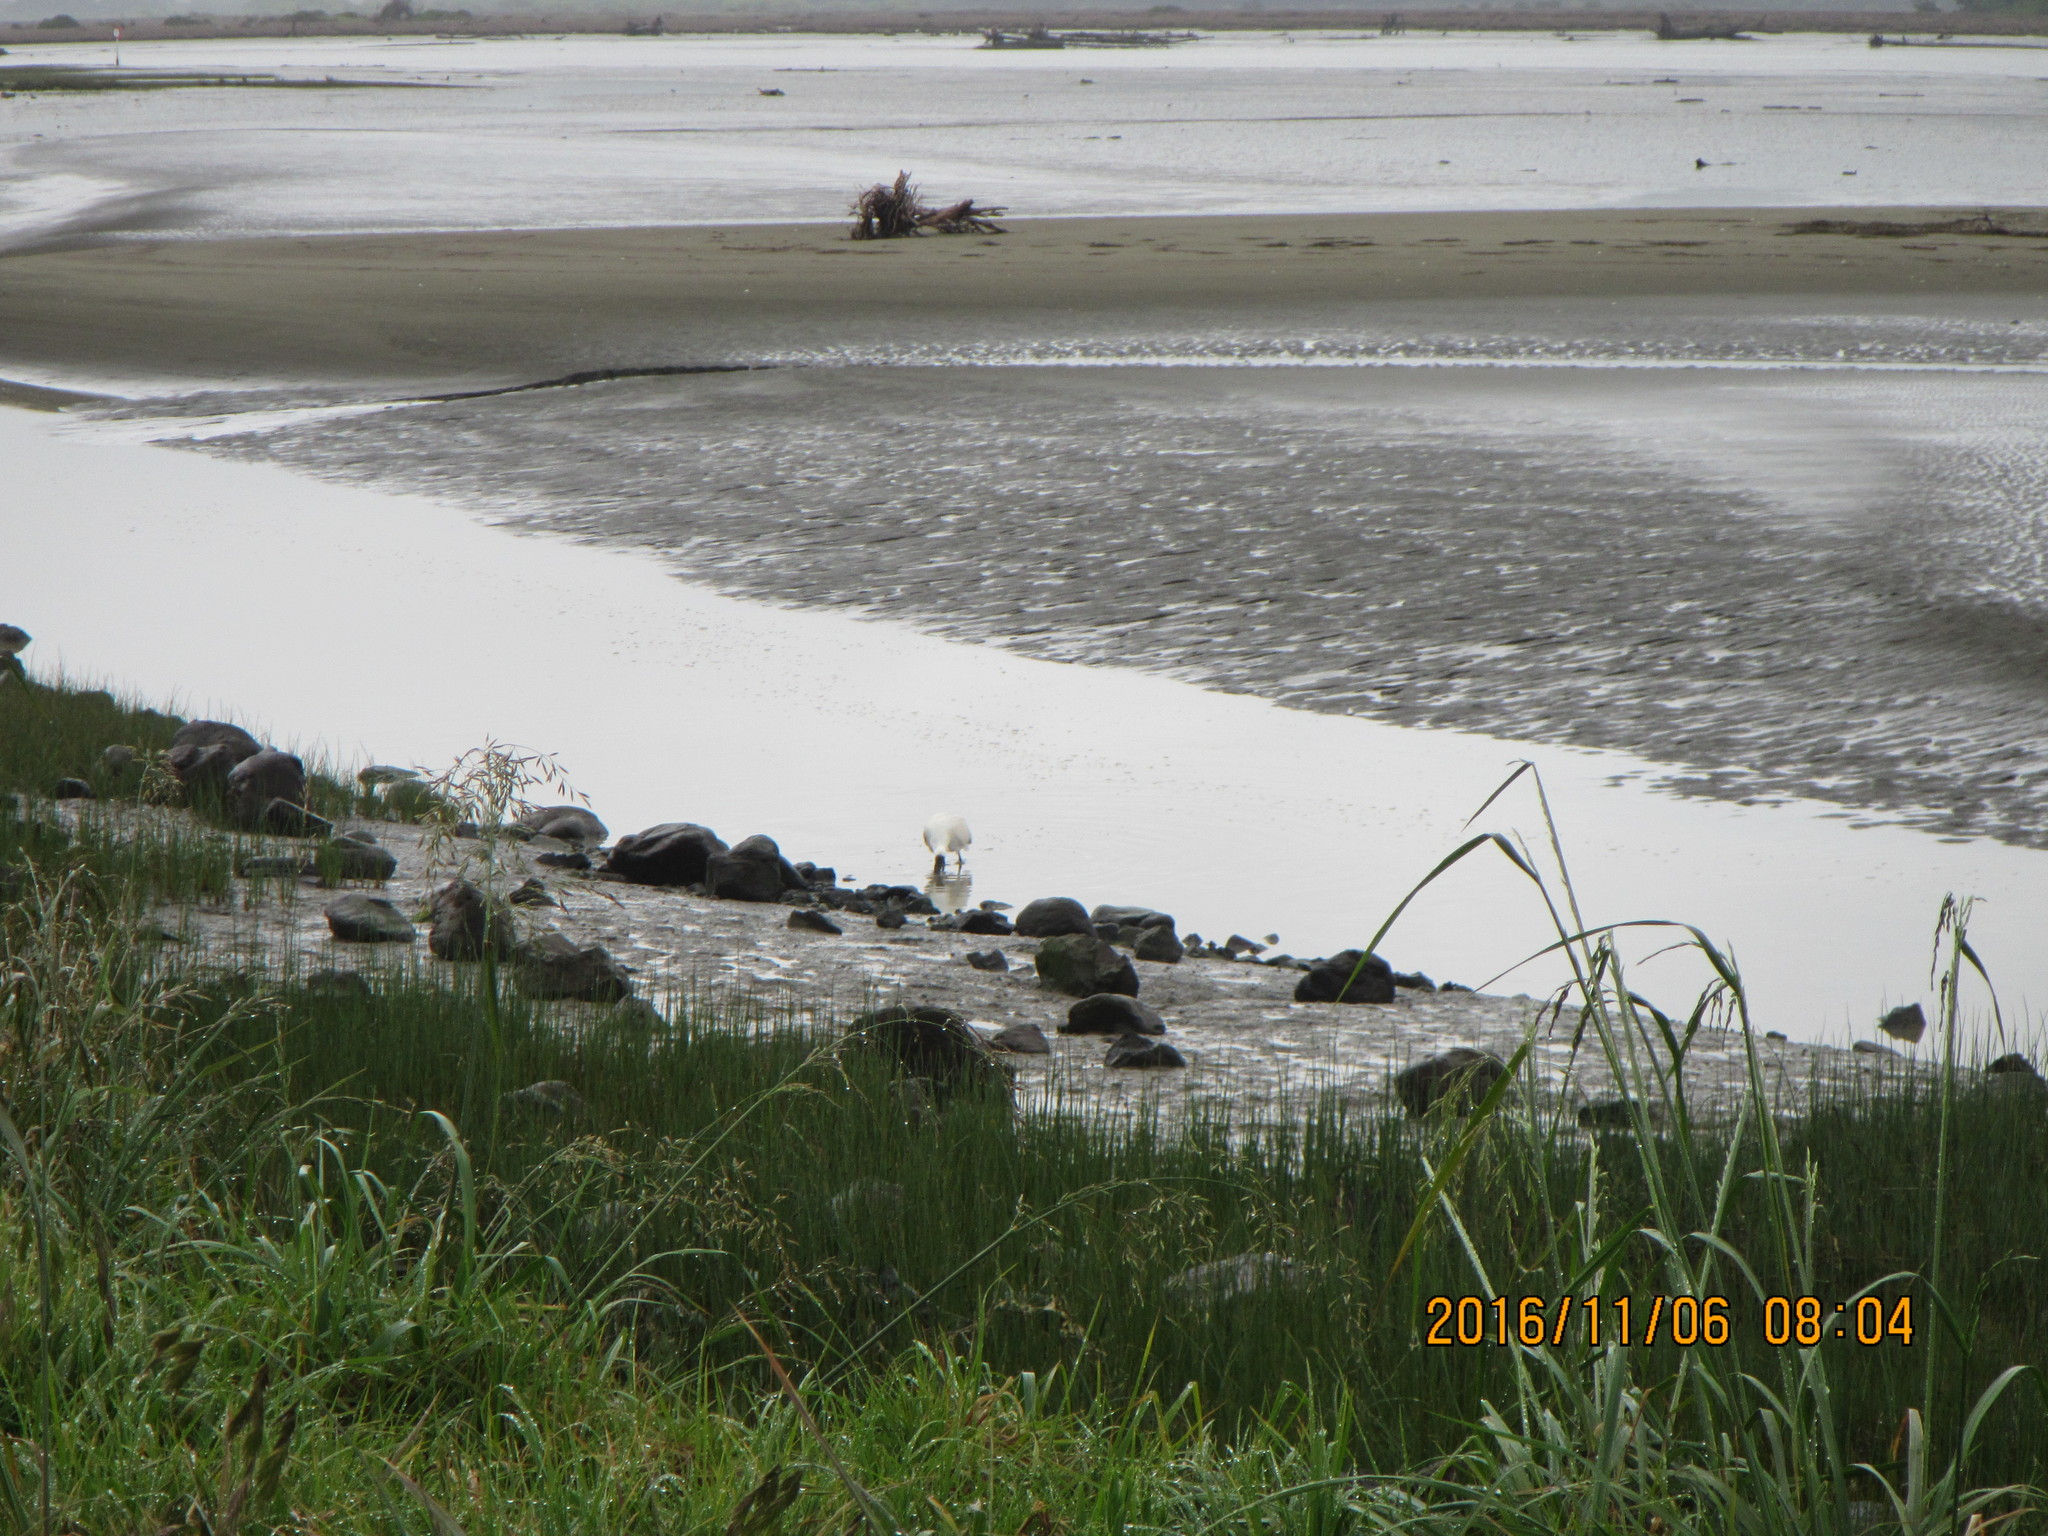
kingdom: Animalia
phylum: Chordata
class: Aves
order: Pelecaniformes
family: Threskiornithidae
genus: Platalea
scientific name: Platalea regia
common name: Royal spoonbill
